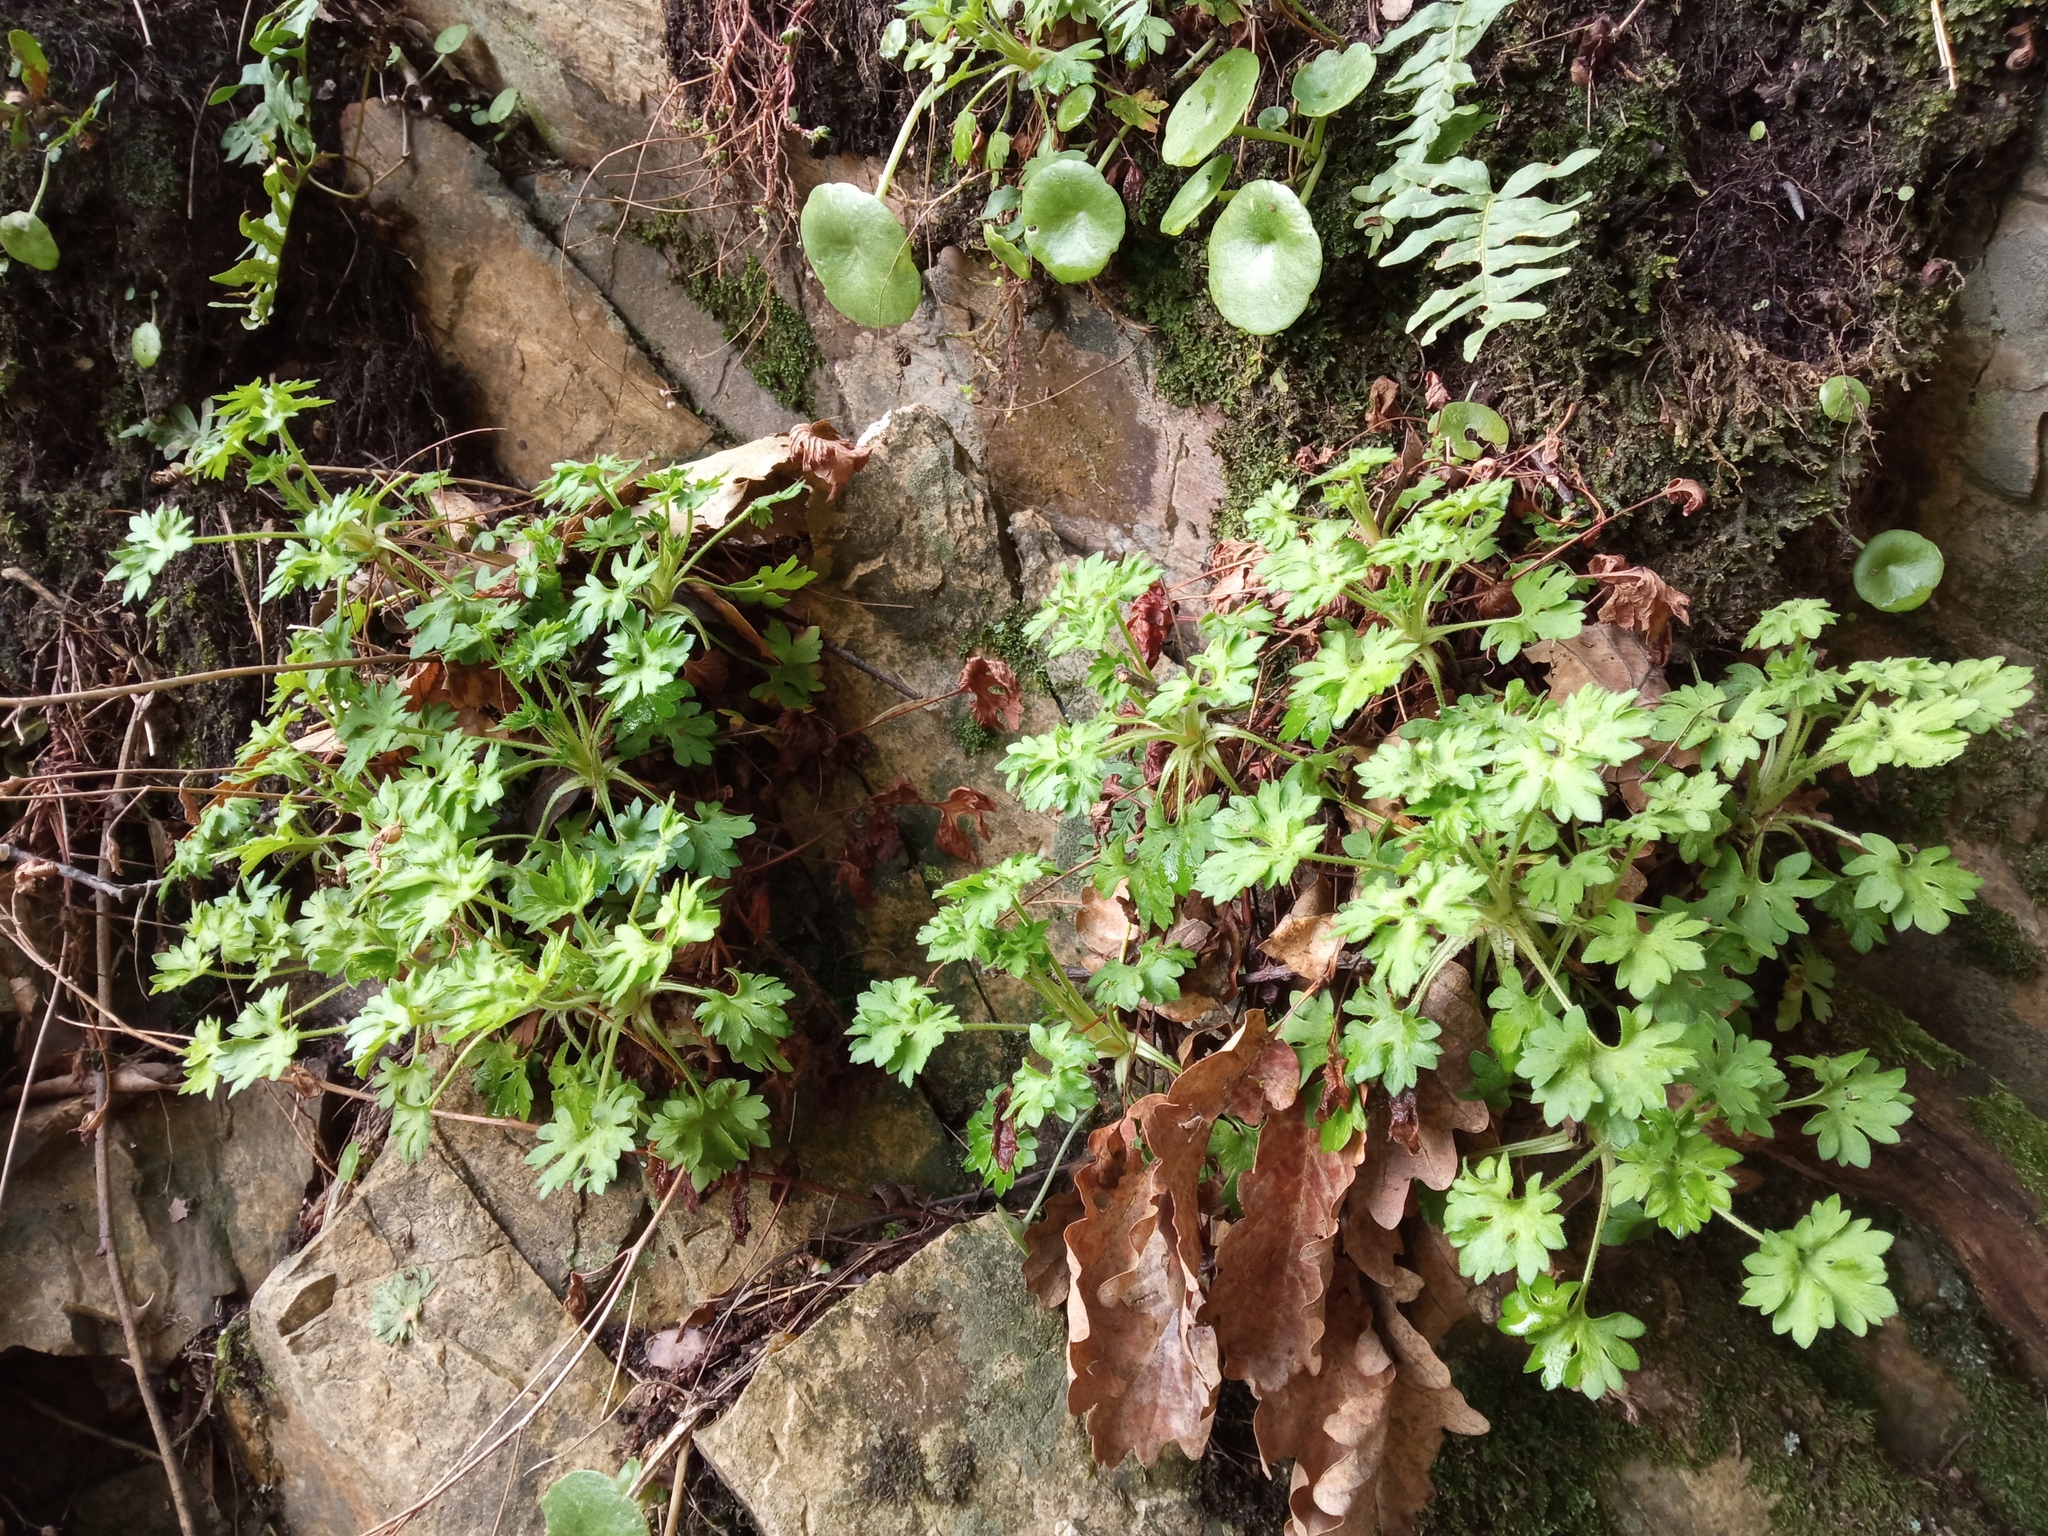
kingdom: Plantae
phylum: Tracheophyta
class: Magnoliopsida
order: Saxifragales
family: Saxifragaceae
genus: Saxifraga
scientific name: Saxifraga genesiana
